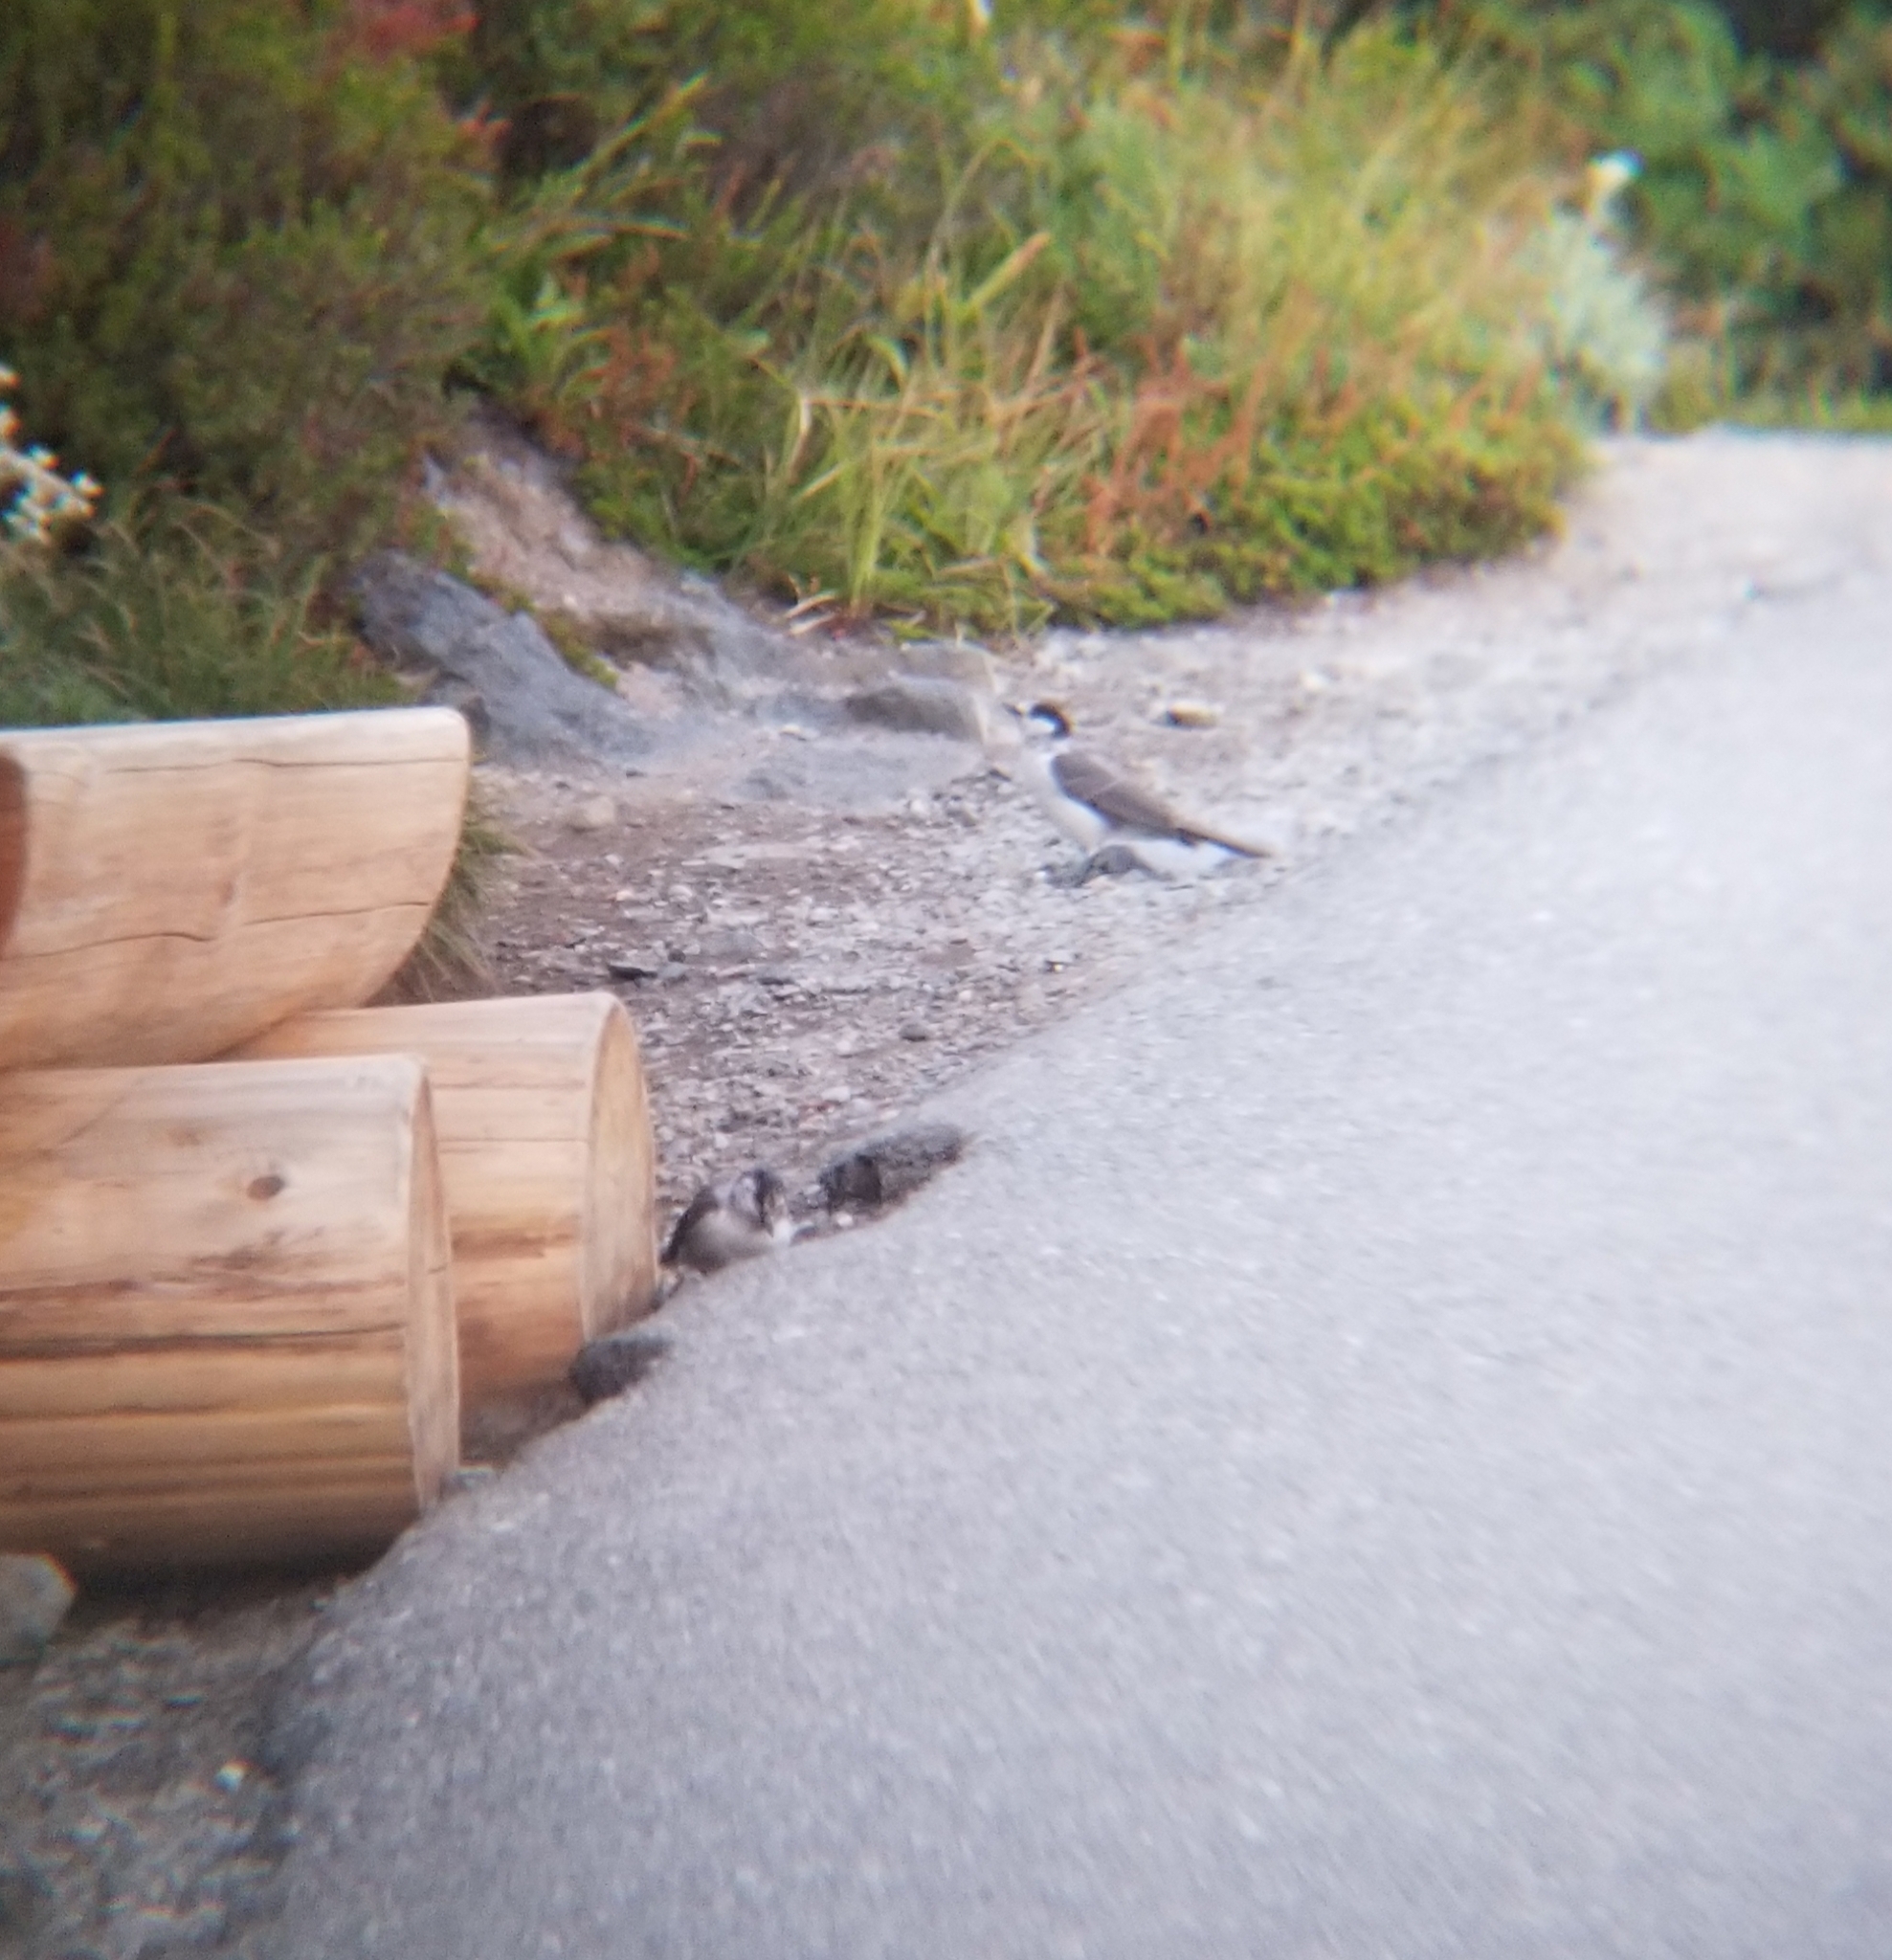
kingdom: Animalia
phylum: Chordata
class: Aves
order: Passeriformes
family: Corvidae
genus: Perisoreus
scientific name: Perisoreus canadensis
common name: Gray jay
